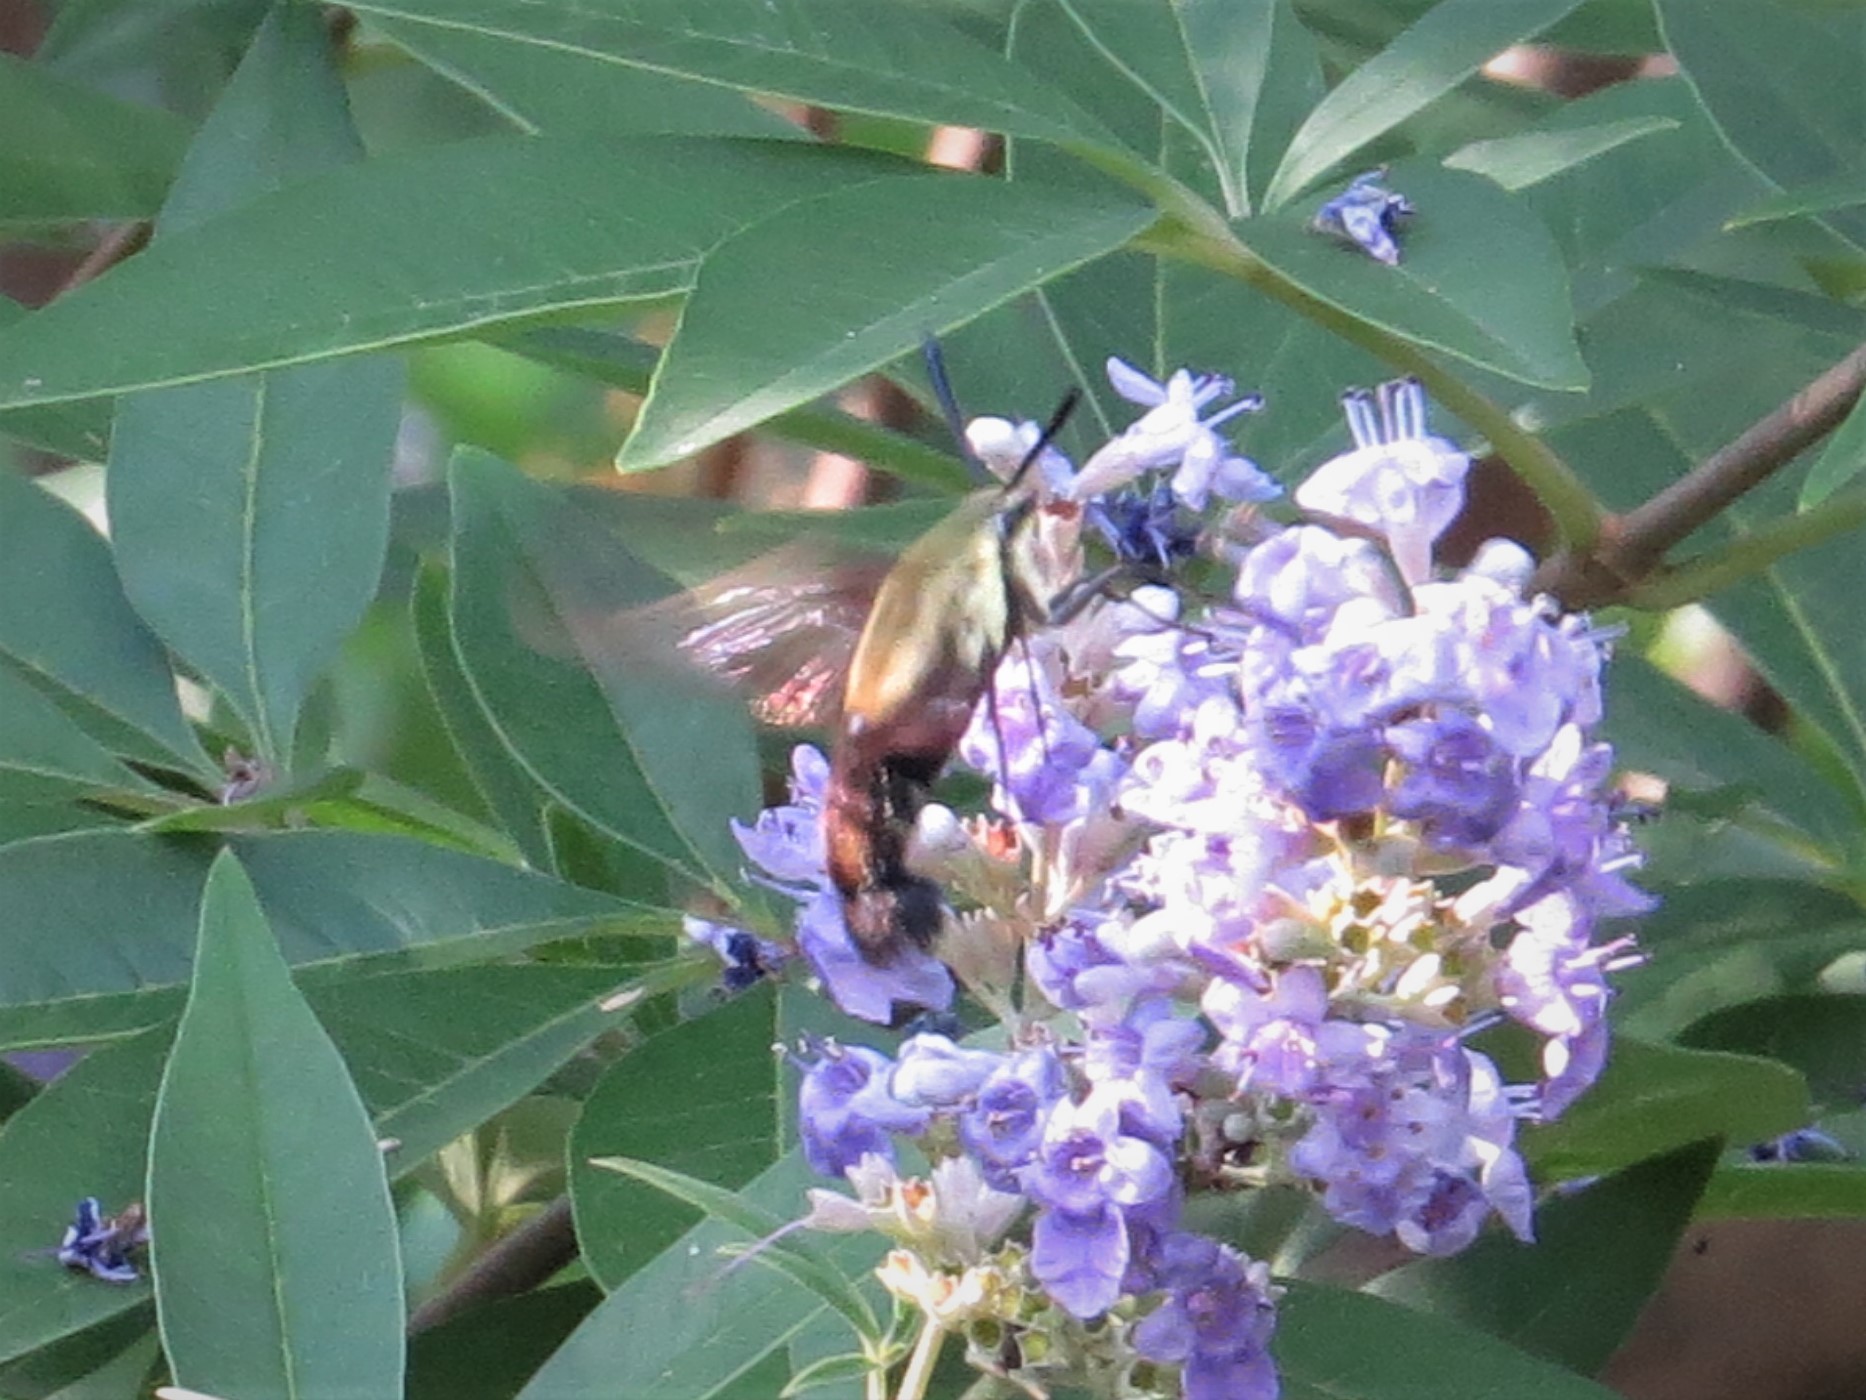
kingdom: Animalia
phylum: Arthropoda
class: Insecta
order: Lepidoptera
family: Sphingidae
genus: Hemaris
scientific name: Hemaris diffinis
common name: Bumblebee moth
